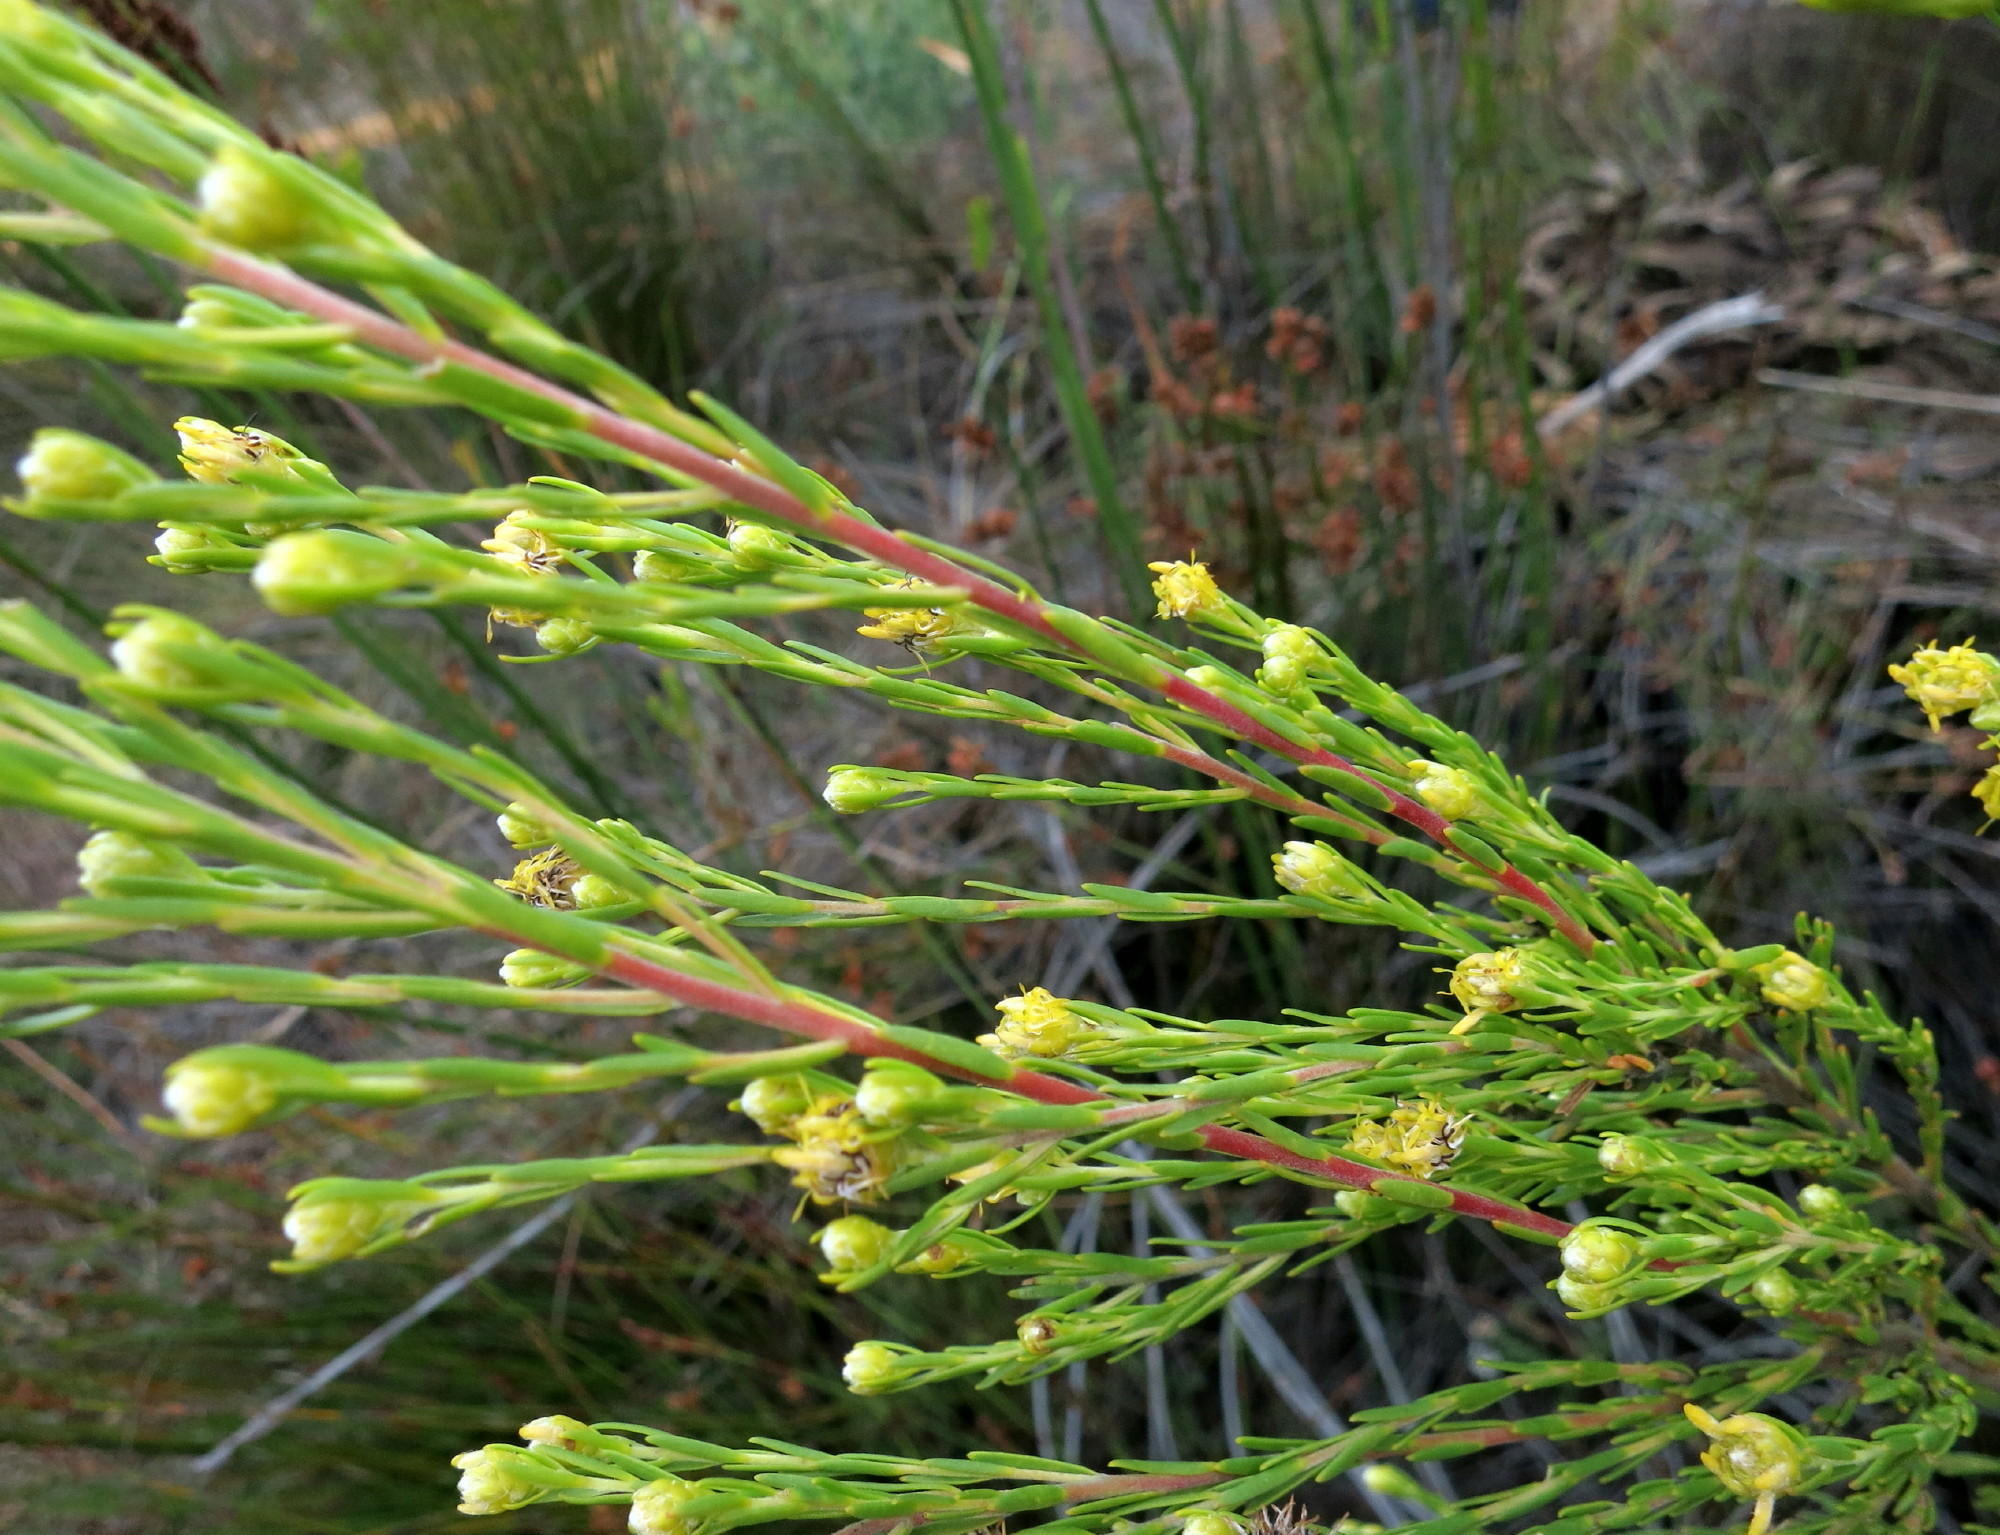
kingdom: Plantae
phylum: Tracheophyta
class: Magnoliopsida
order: Proteales
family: Proteaceae
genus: Leucadendron
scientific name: Leucadendron olens
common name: Yellow conebush
